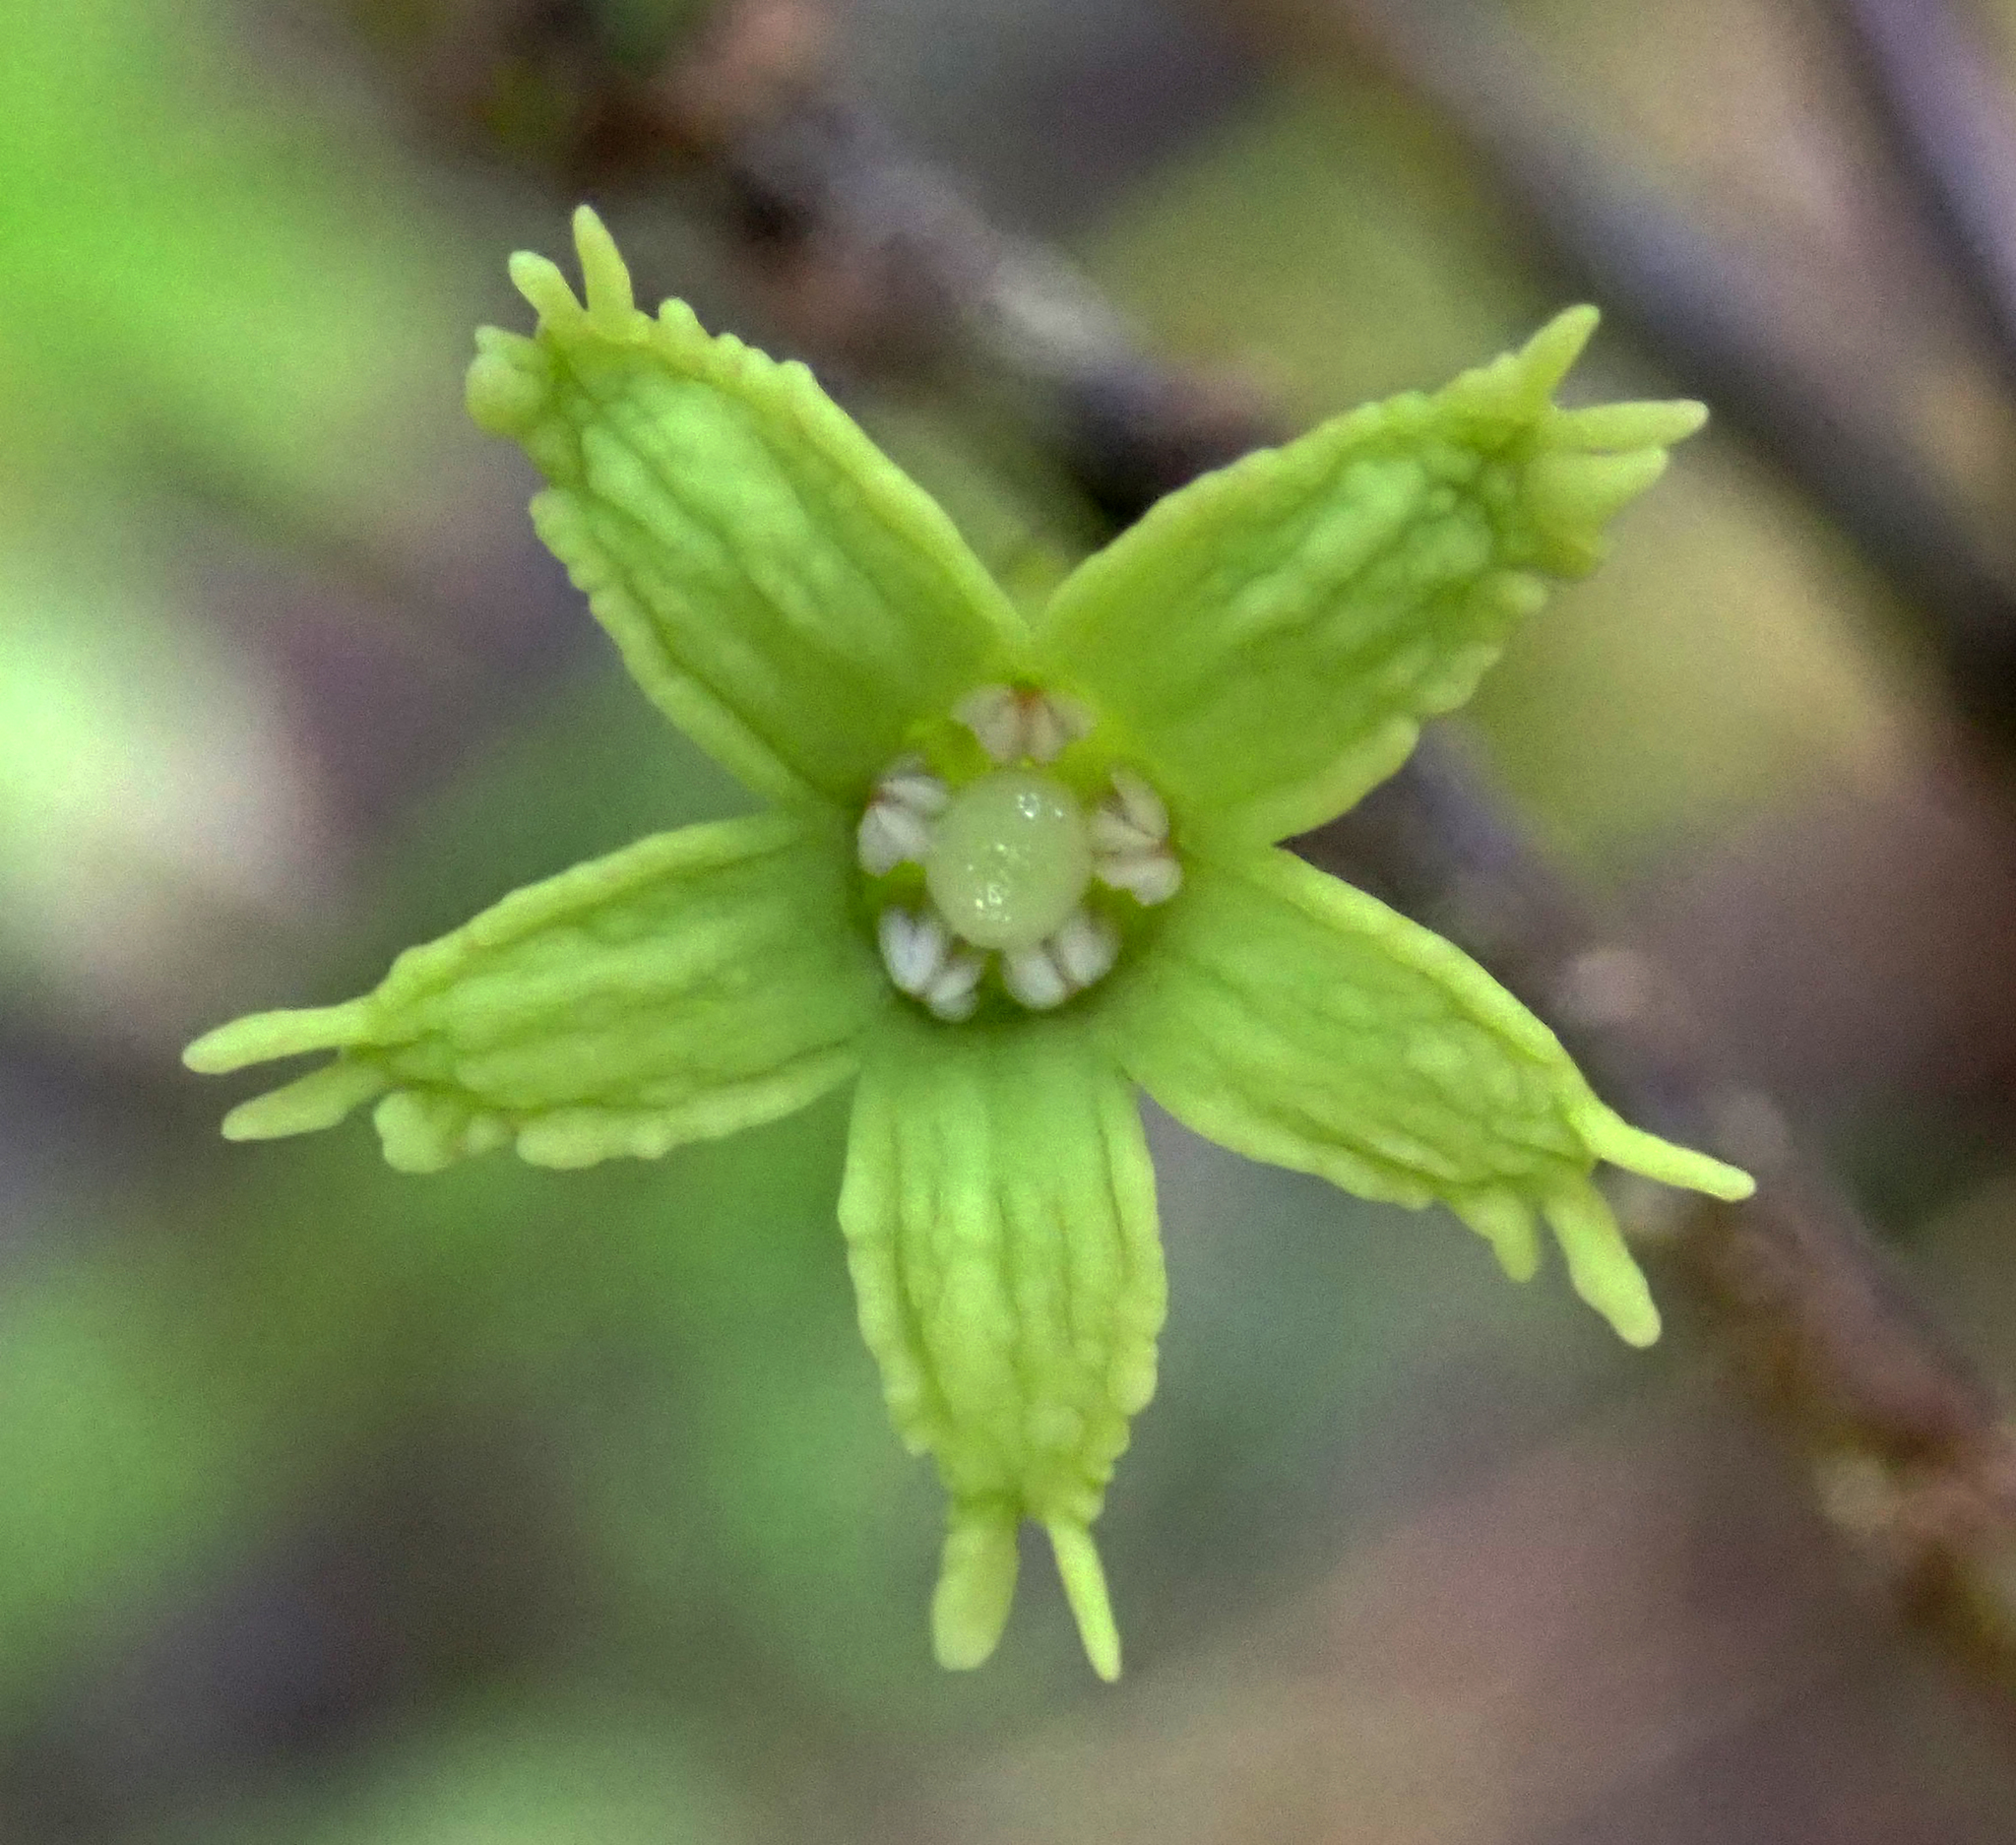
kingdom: Plantae
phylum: Tracheophyta
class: Magnoliopsida
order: Asterales
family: Alseuosmiaceae
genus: Alseuosmia
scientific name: Alseuosmia quercifolia
